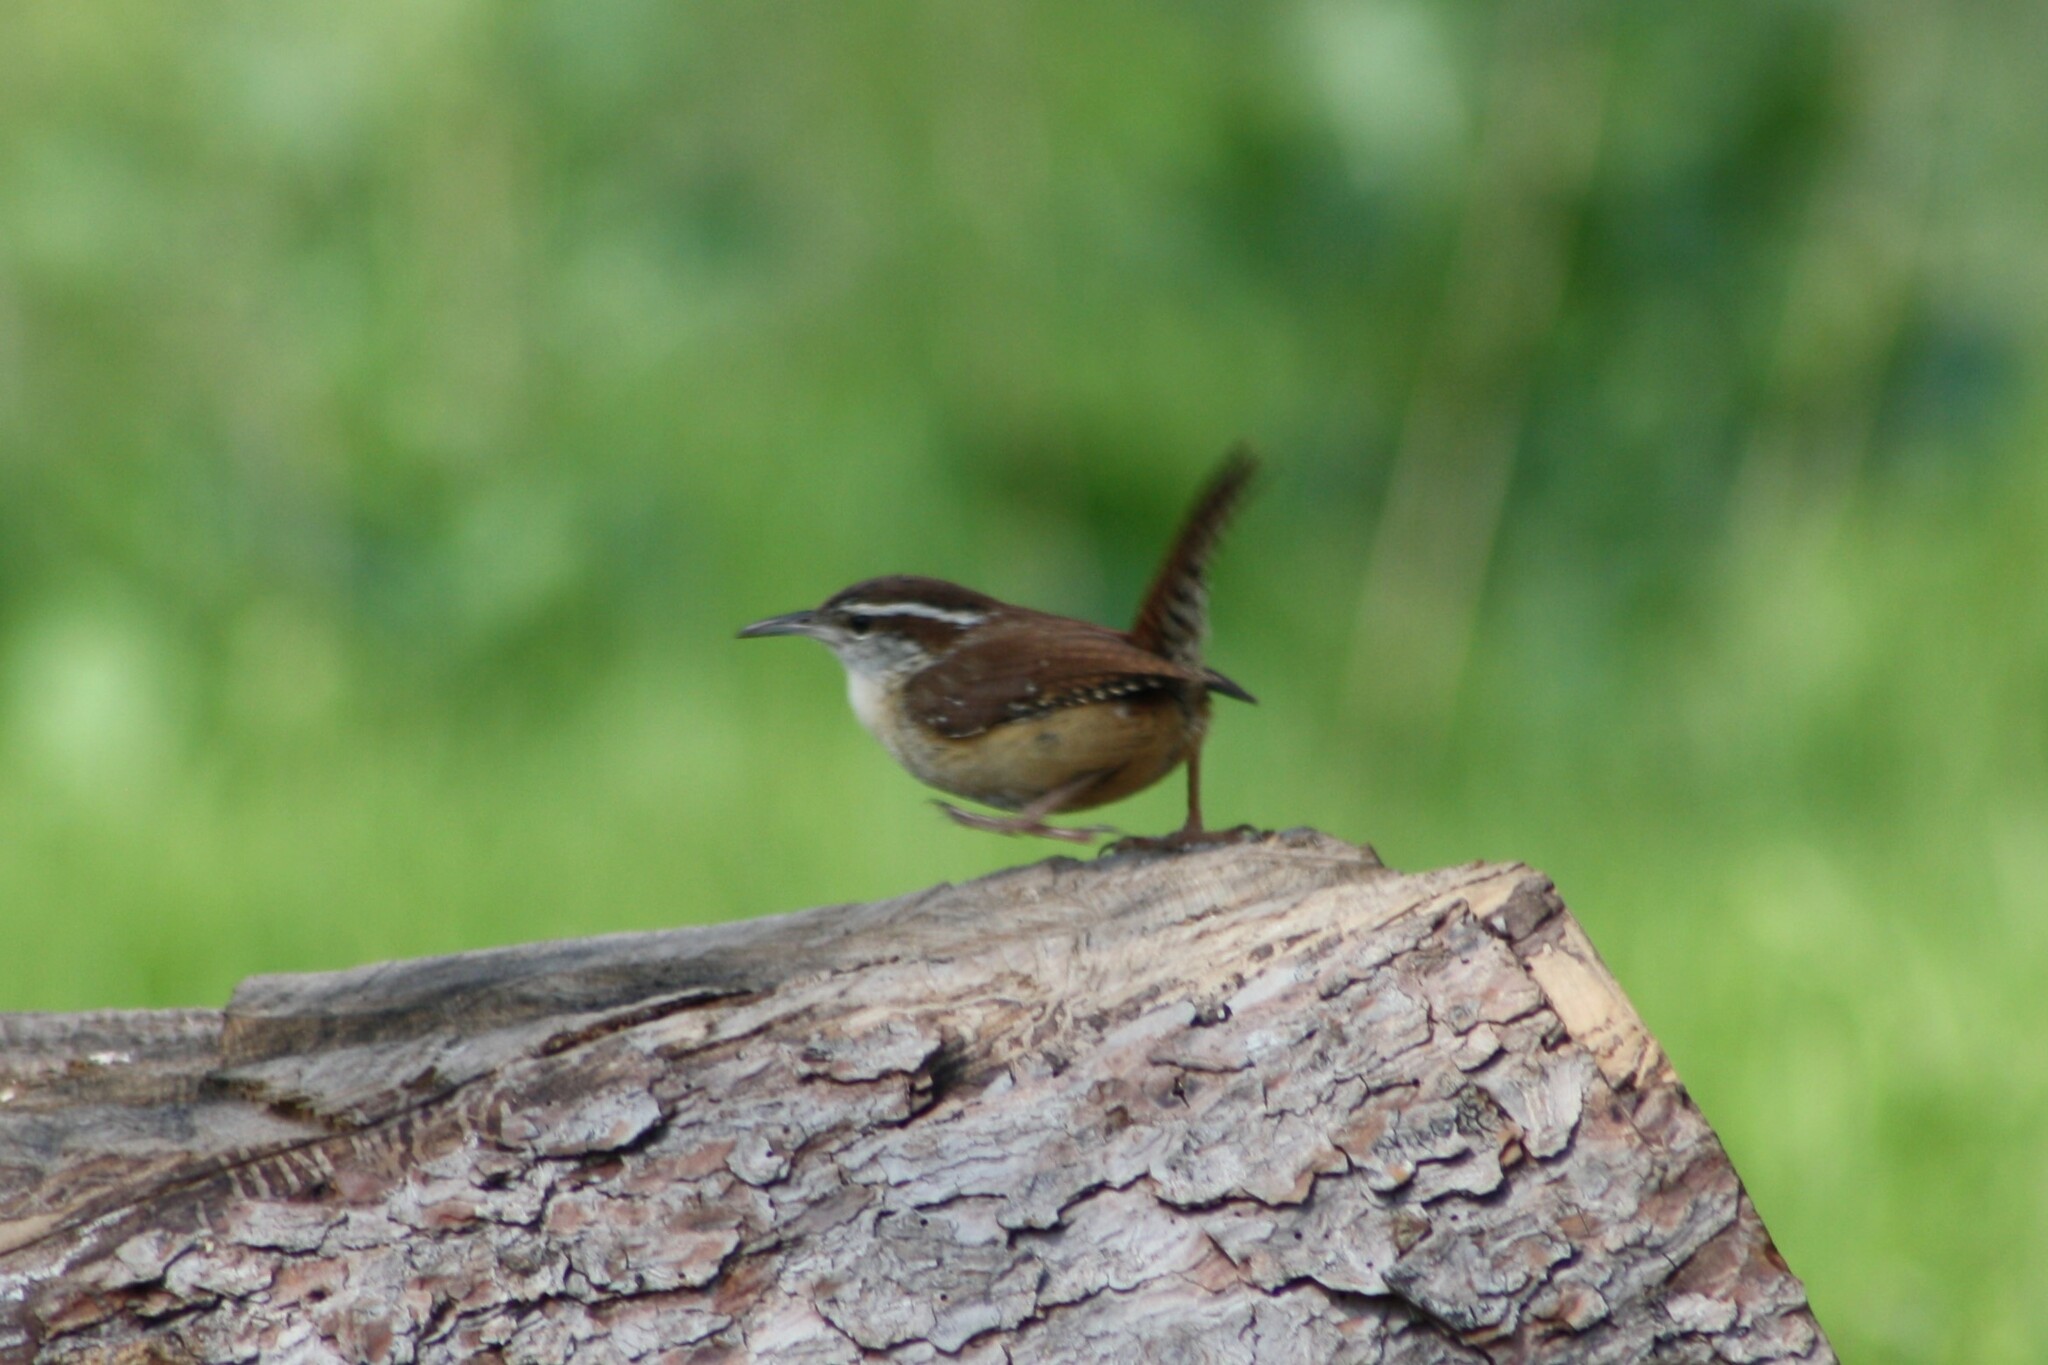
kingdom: Animalia
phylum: Chordata
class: Aves
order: Passeriformes
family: Troglodytidae
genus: Thryothorus
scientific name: Thryothorus ludovicianus
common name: Carolina wren
